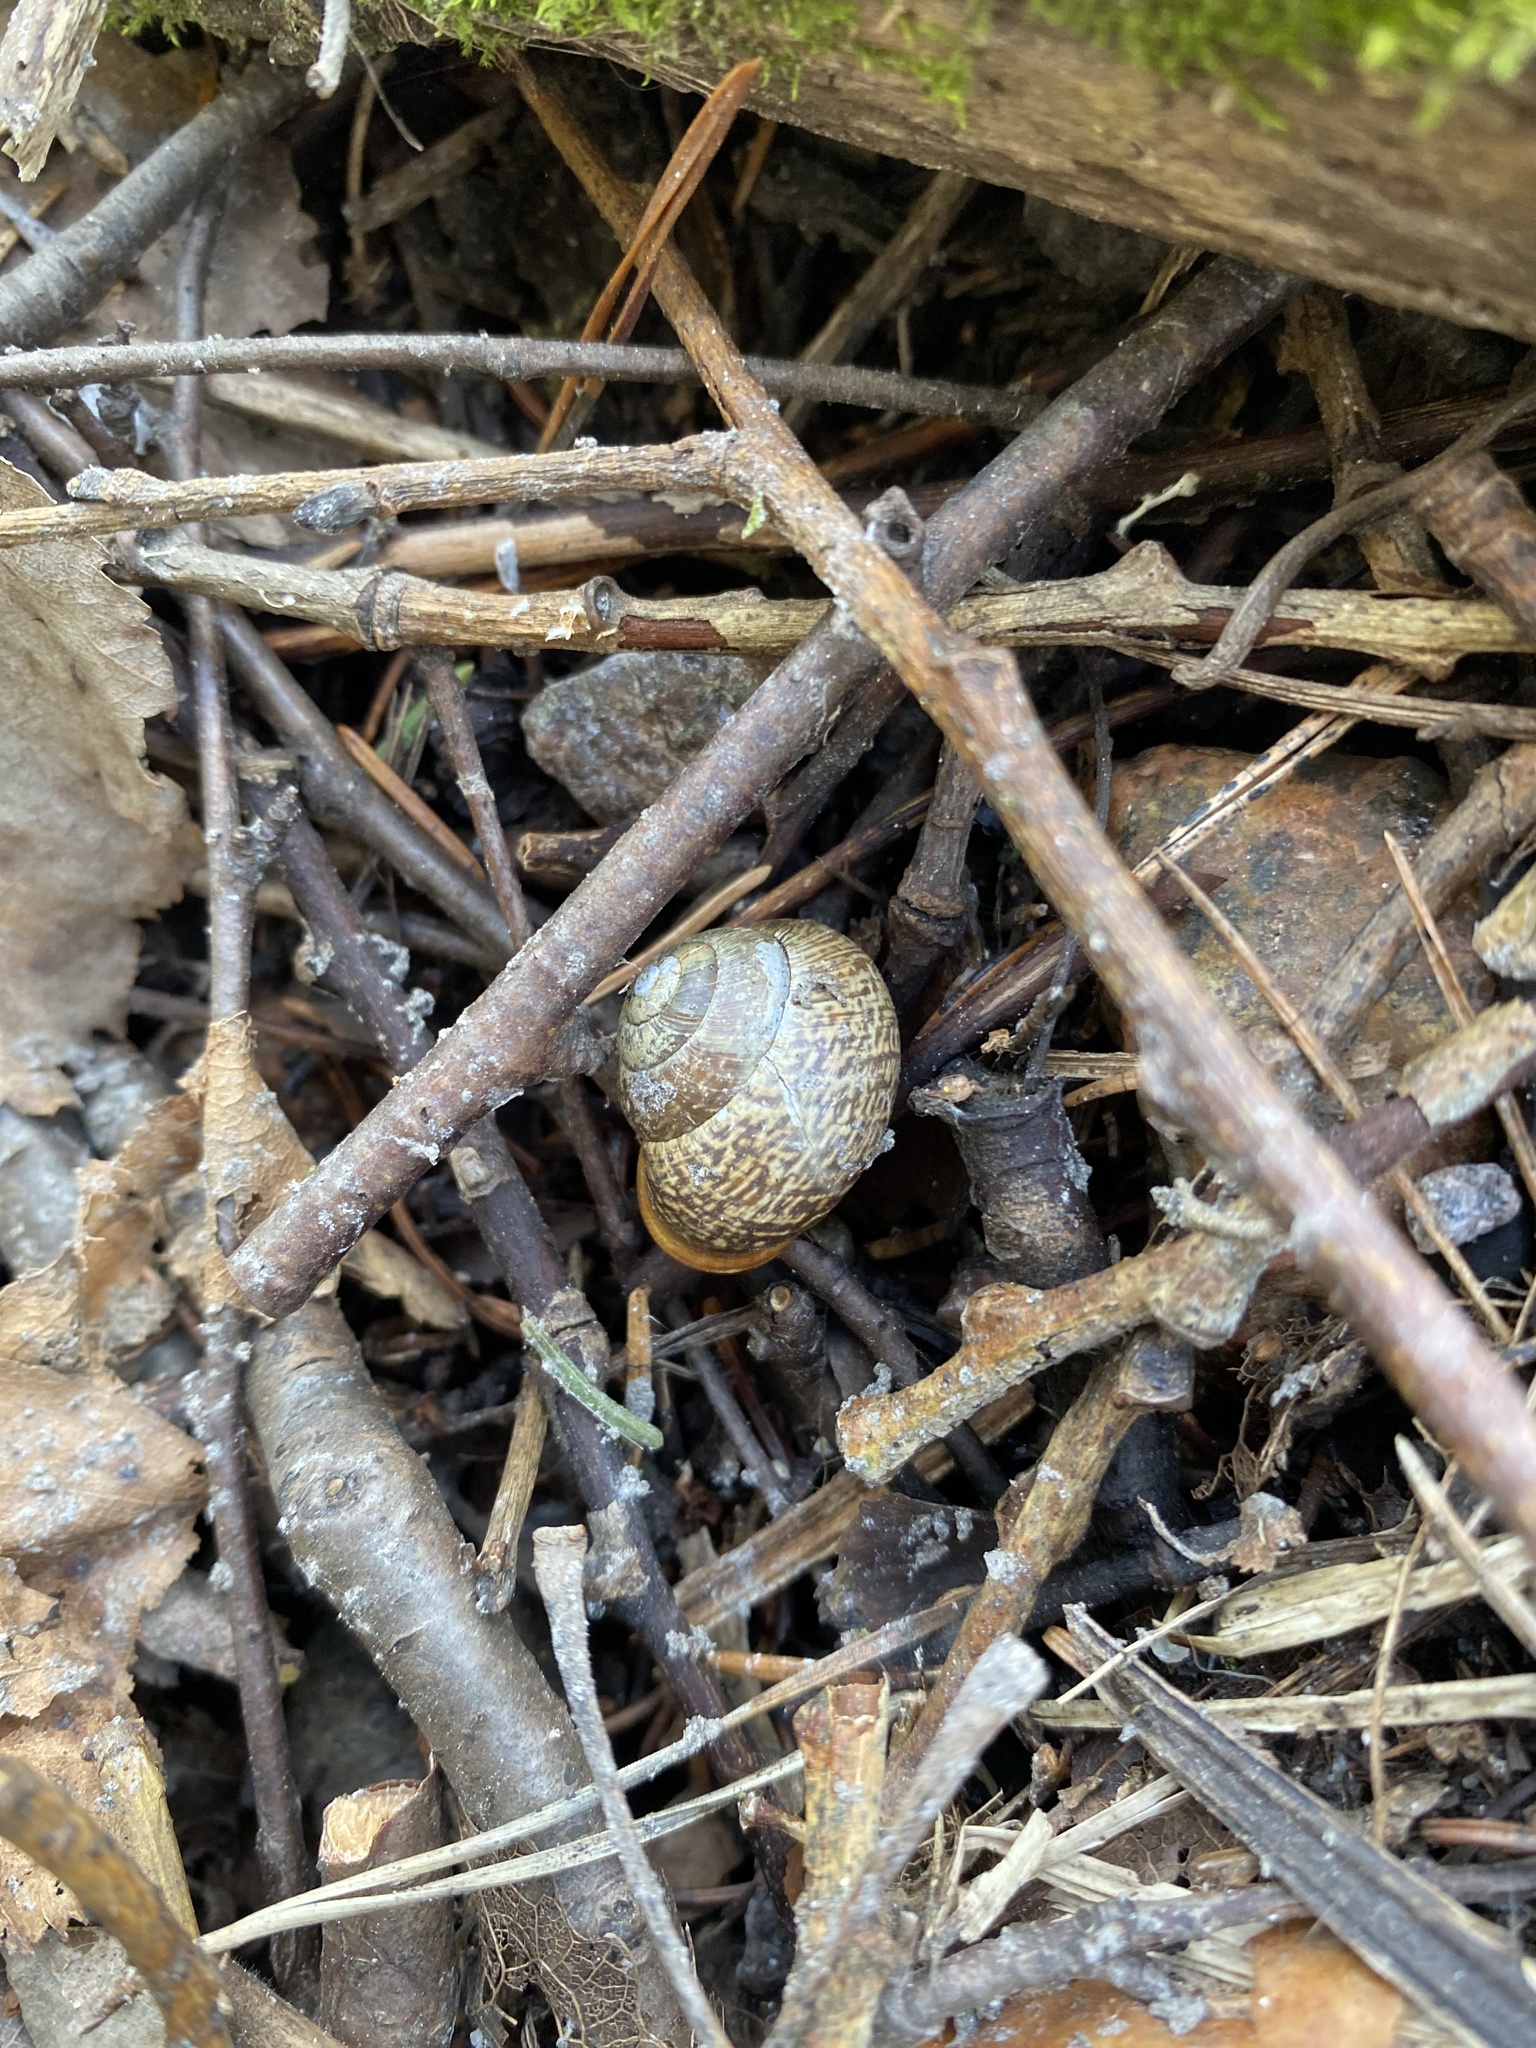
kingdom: Animalia
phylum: Mollusca
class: Gastropoda
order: Stylommatophora
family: Helicidae
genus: Arianta
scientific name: Arianta arbustorum
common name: Copse snail
